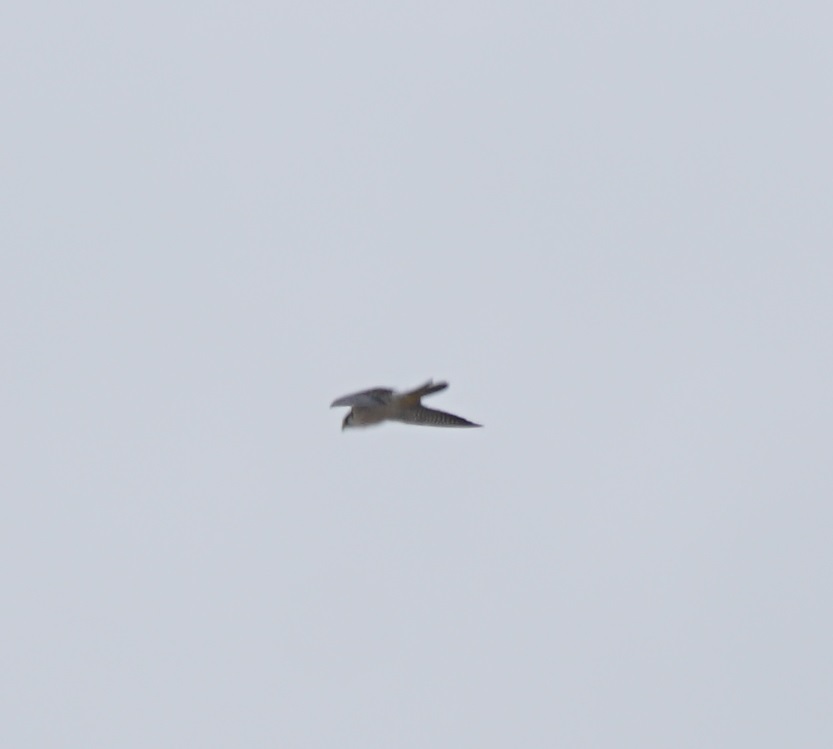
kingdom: Animalia
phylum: Chordata
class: Aves
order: Falconiformes
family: Falconidae
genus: Falco
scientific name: Falco peregrinus
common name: Peregrine falcon
